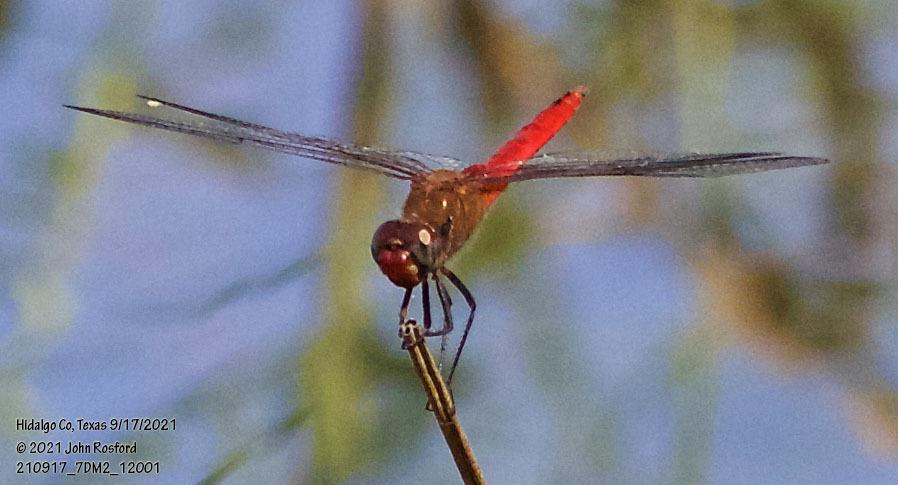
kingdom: Animalia
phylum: Arthropoda
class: Insecta
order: Odonata
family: Libellulidae
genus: Brachymesia
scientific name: Brachymesia furcata
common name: Red-taled pennant
